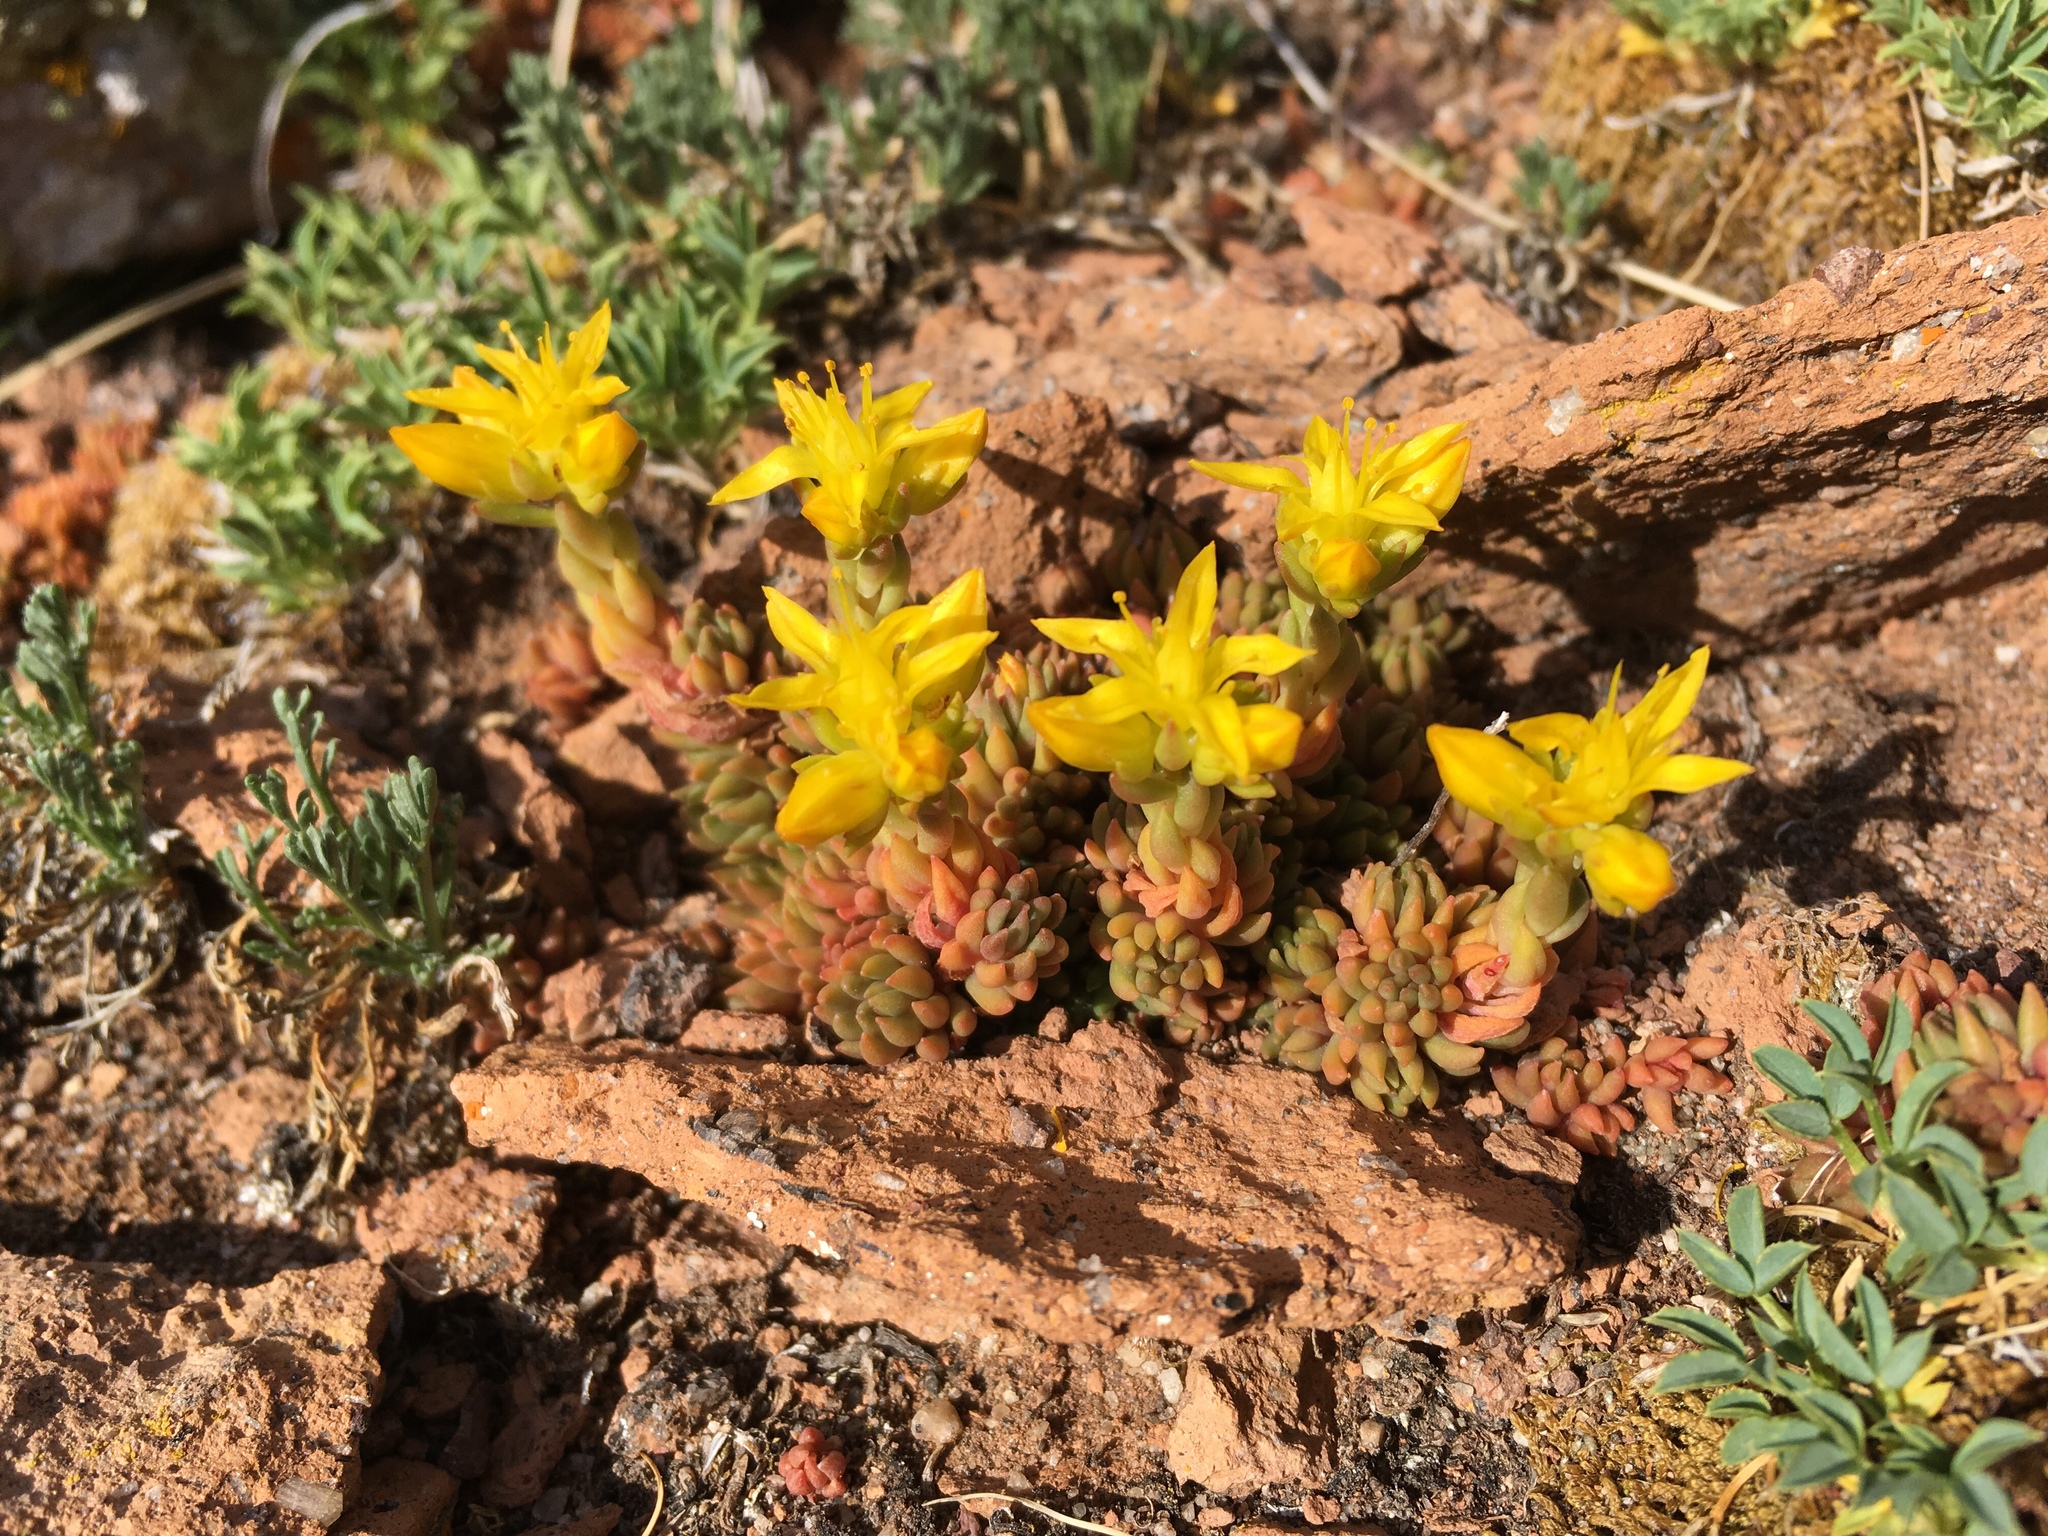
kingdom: Plantae
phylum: Tracheophyta
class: Magnoliopsida
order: Saxifragales
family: Crassulaceae
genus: Sedum
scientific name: Sedum lanceolatum
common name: Common stonecrop
